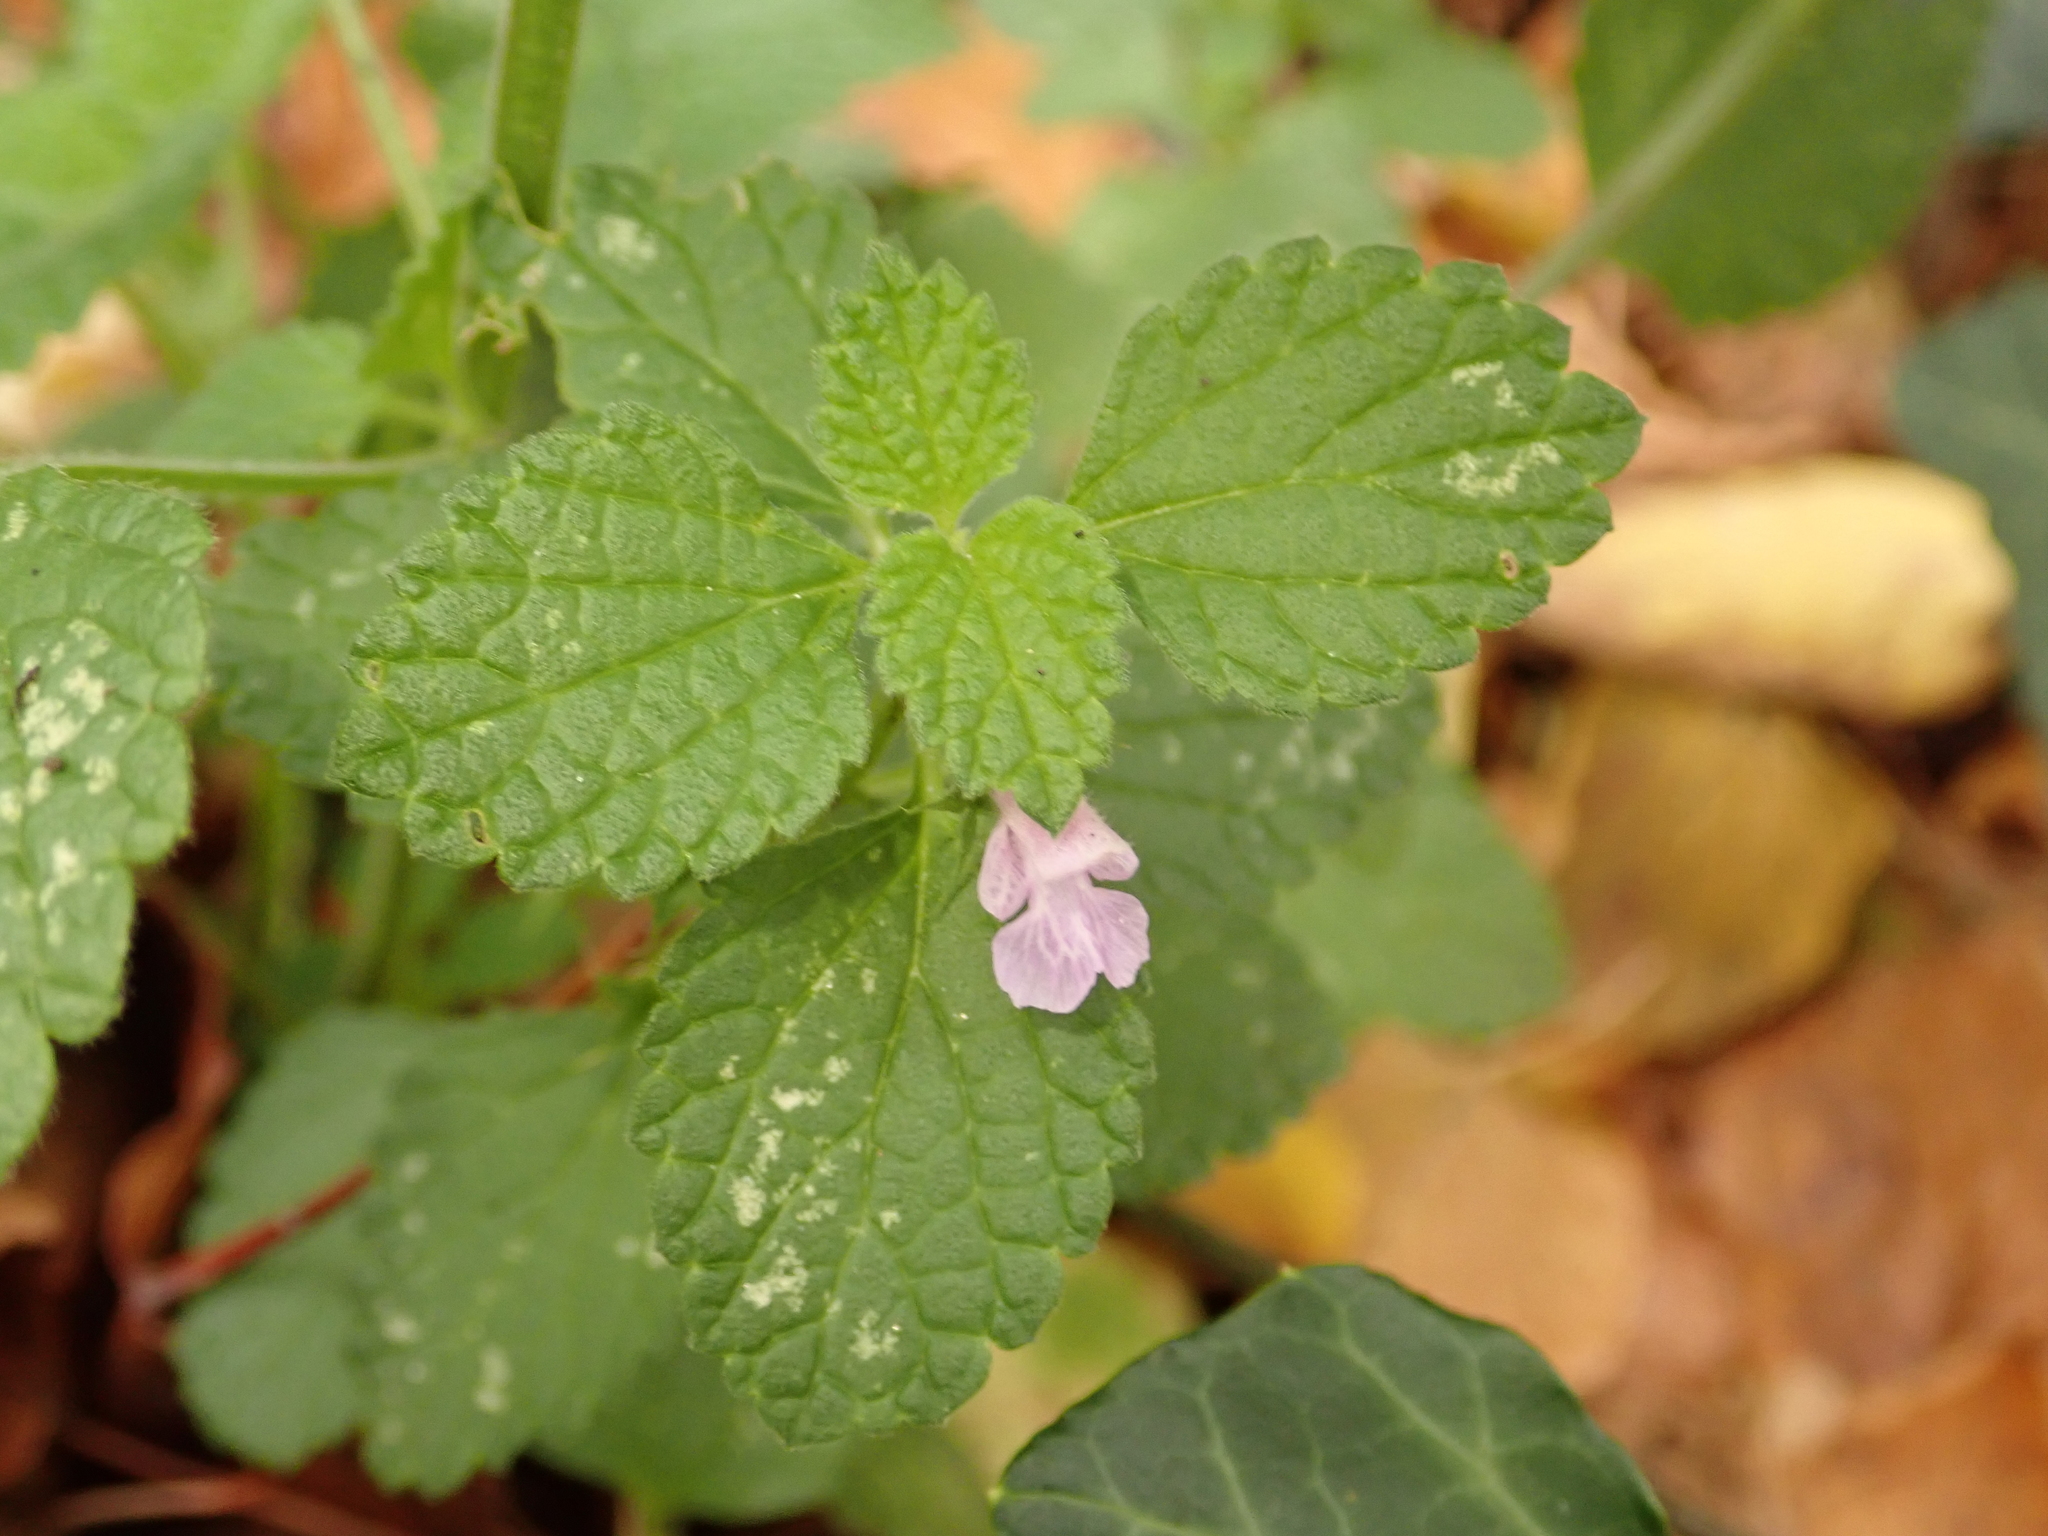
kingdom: Plantae
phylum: Tracheophyta
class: Magnoliopsida
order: Lamiales
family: Lamiaceae
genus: Ballota
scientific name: Ballota nigra
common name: Black horehound
